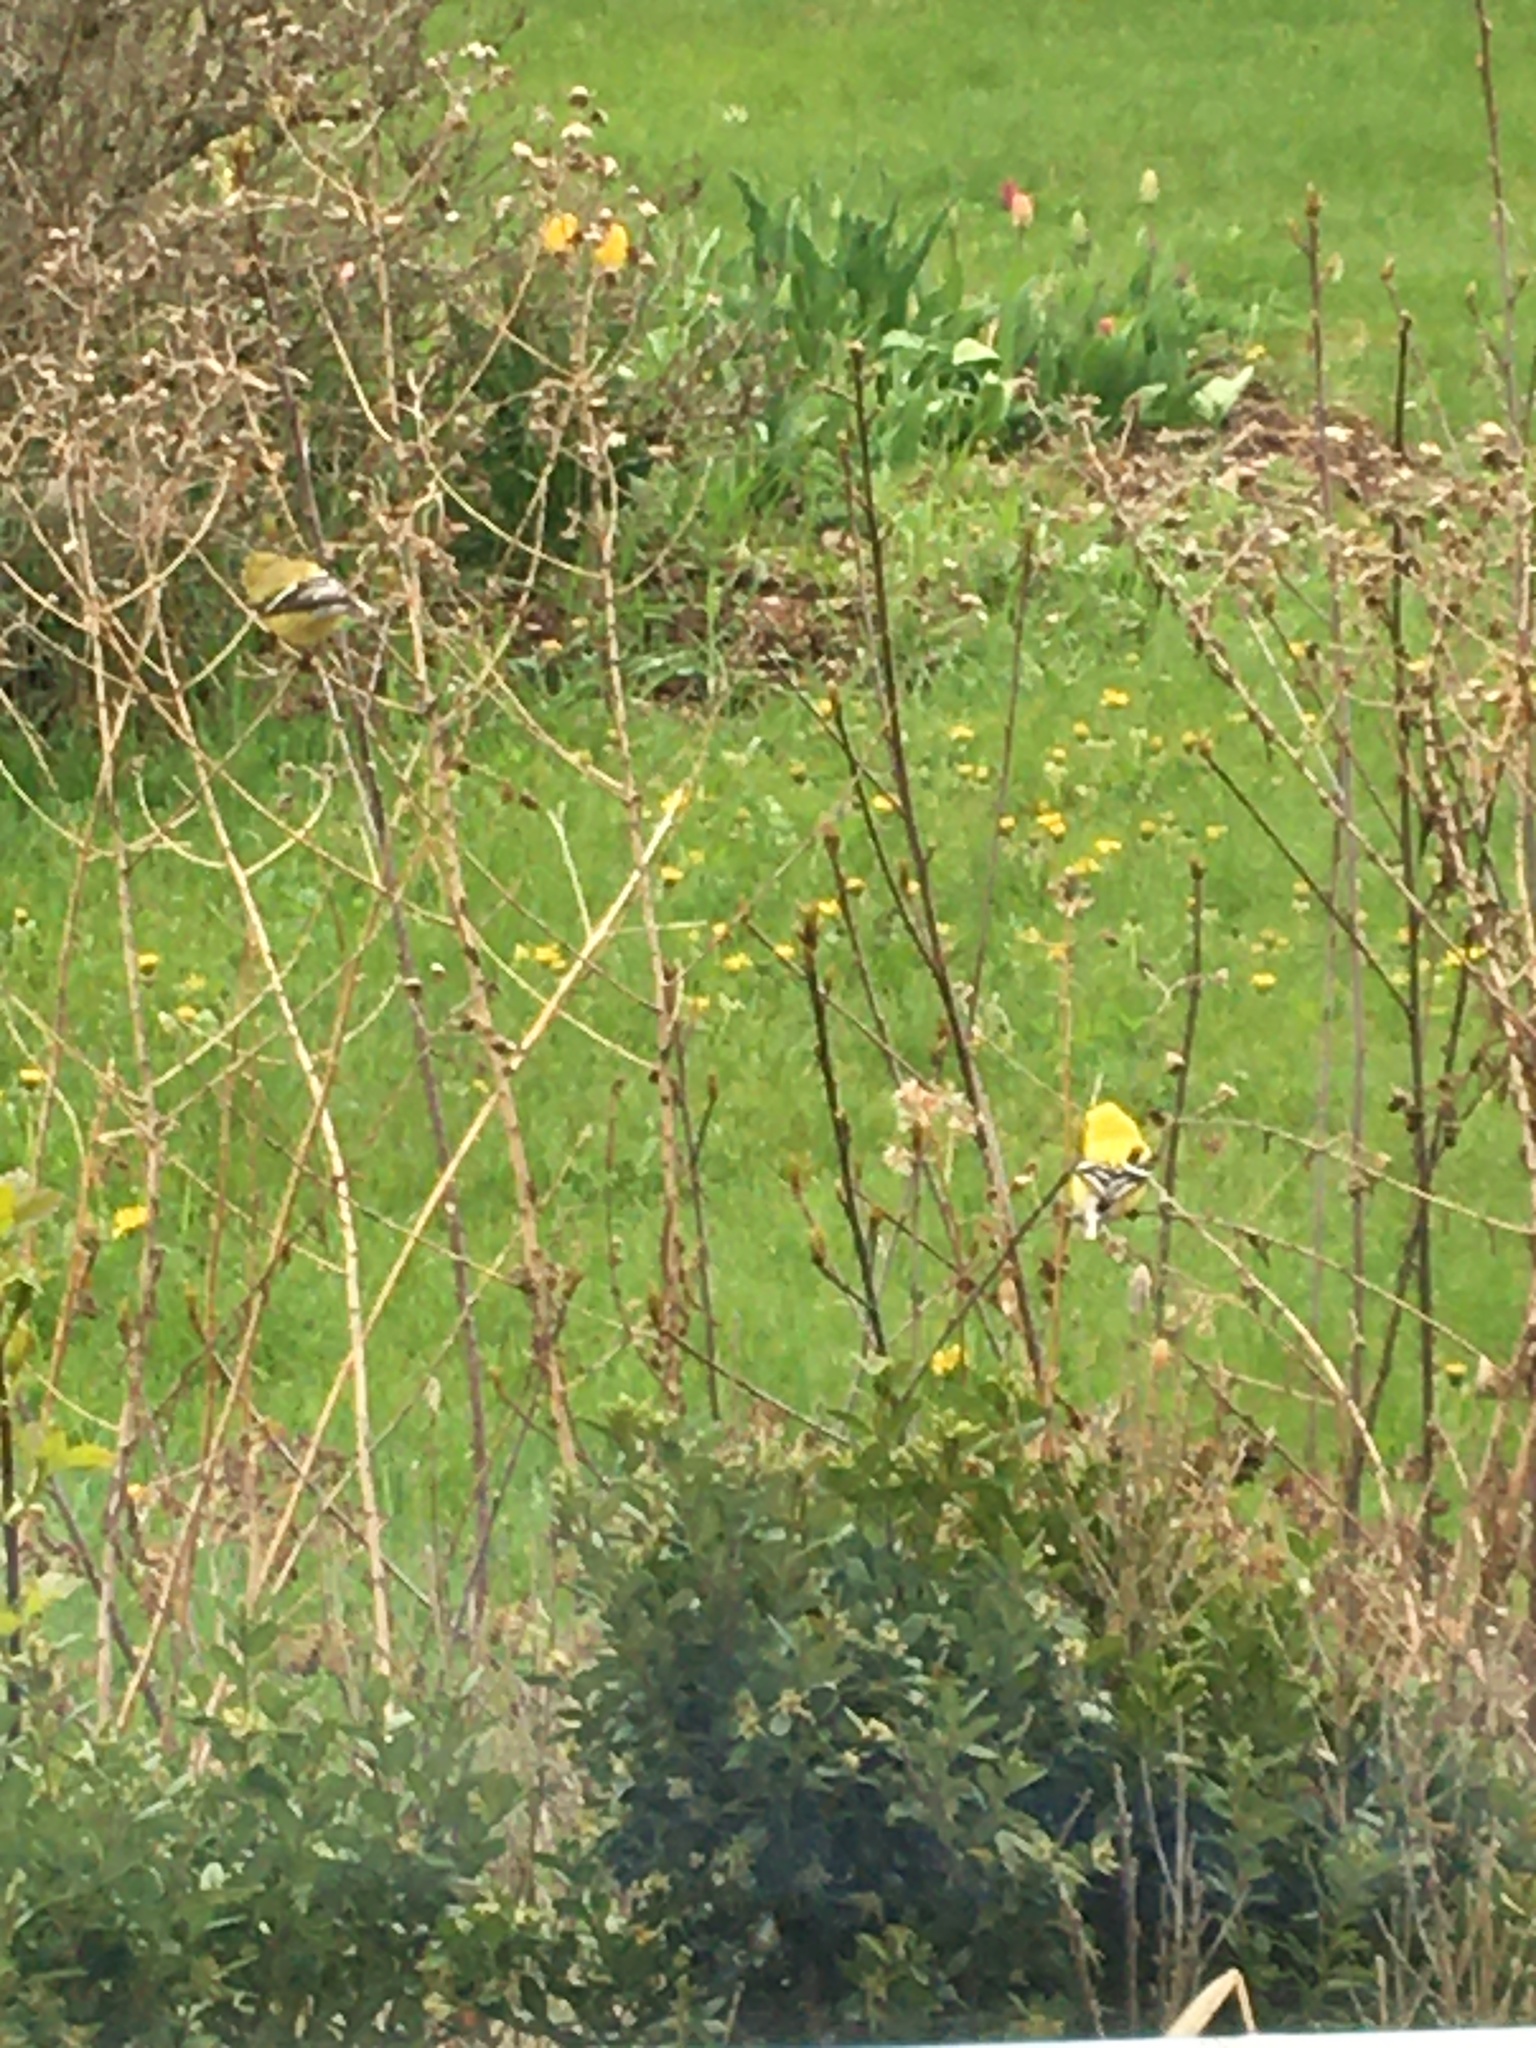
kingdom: Animalia
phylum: Chordata
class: Aves
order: Passeriformes
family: Fringillidae
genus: Spinus
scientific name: Spinus tristis
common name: American goldfinch
